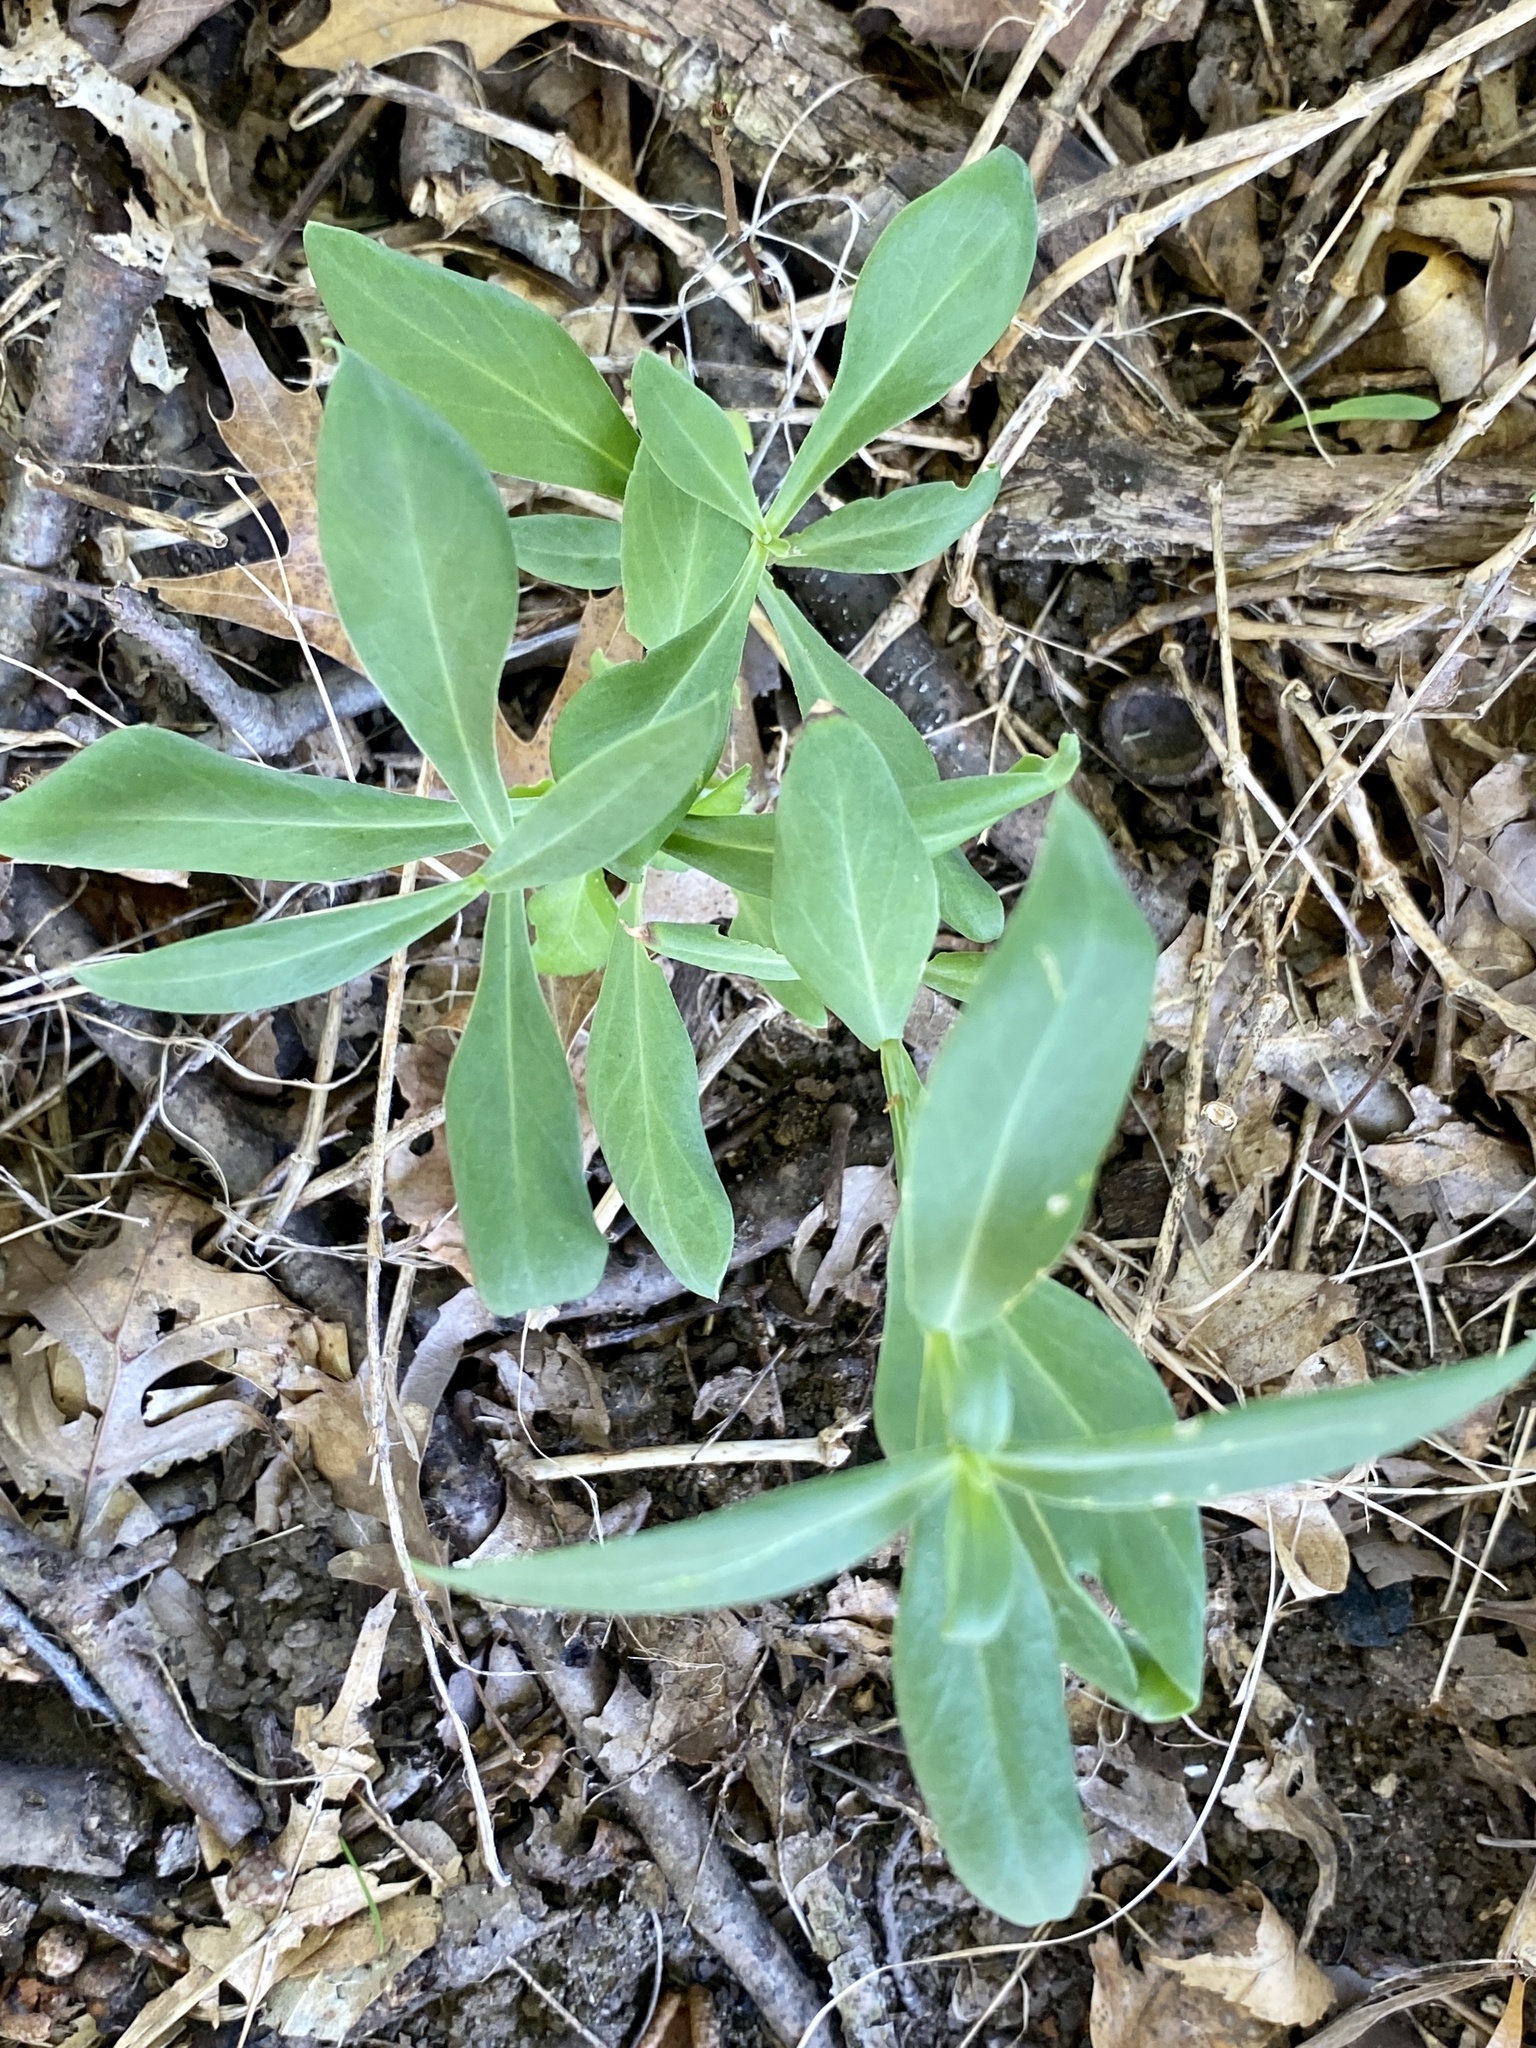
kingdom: Plantae
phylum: Tracheophyta
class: Magnoliopsida
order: Caryophyllales
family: Caryophyllaceae
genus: Silene
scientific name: Silene vulgaris
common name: Bladder campion
